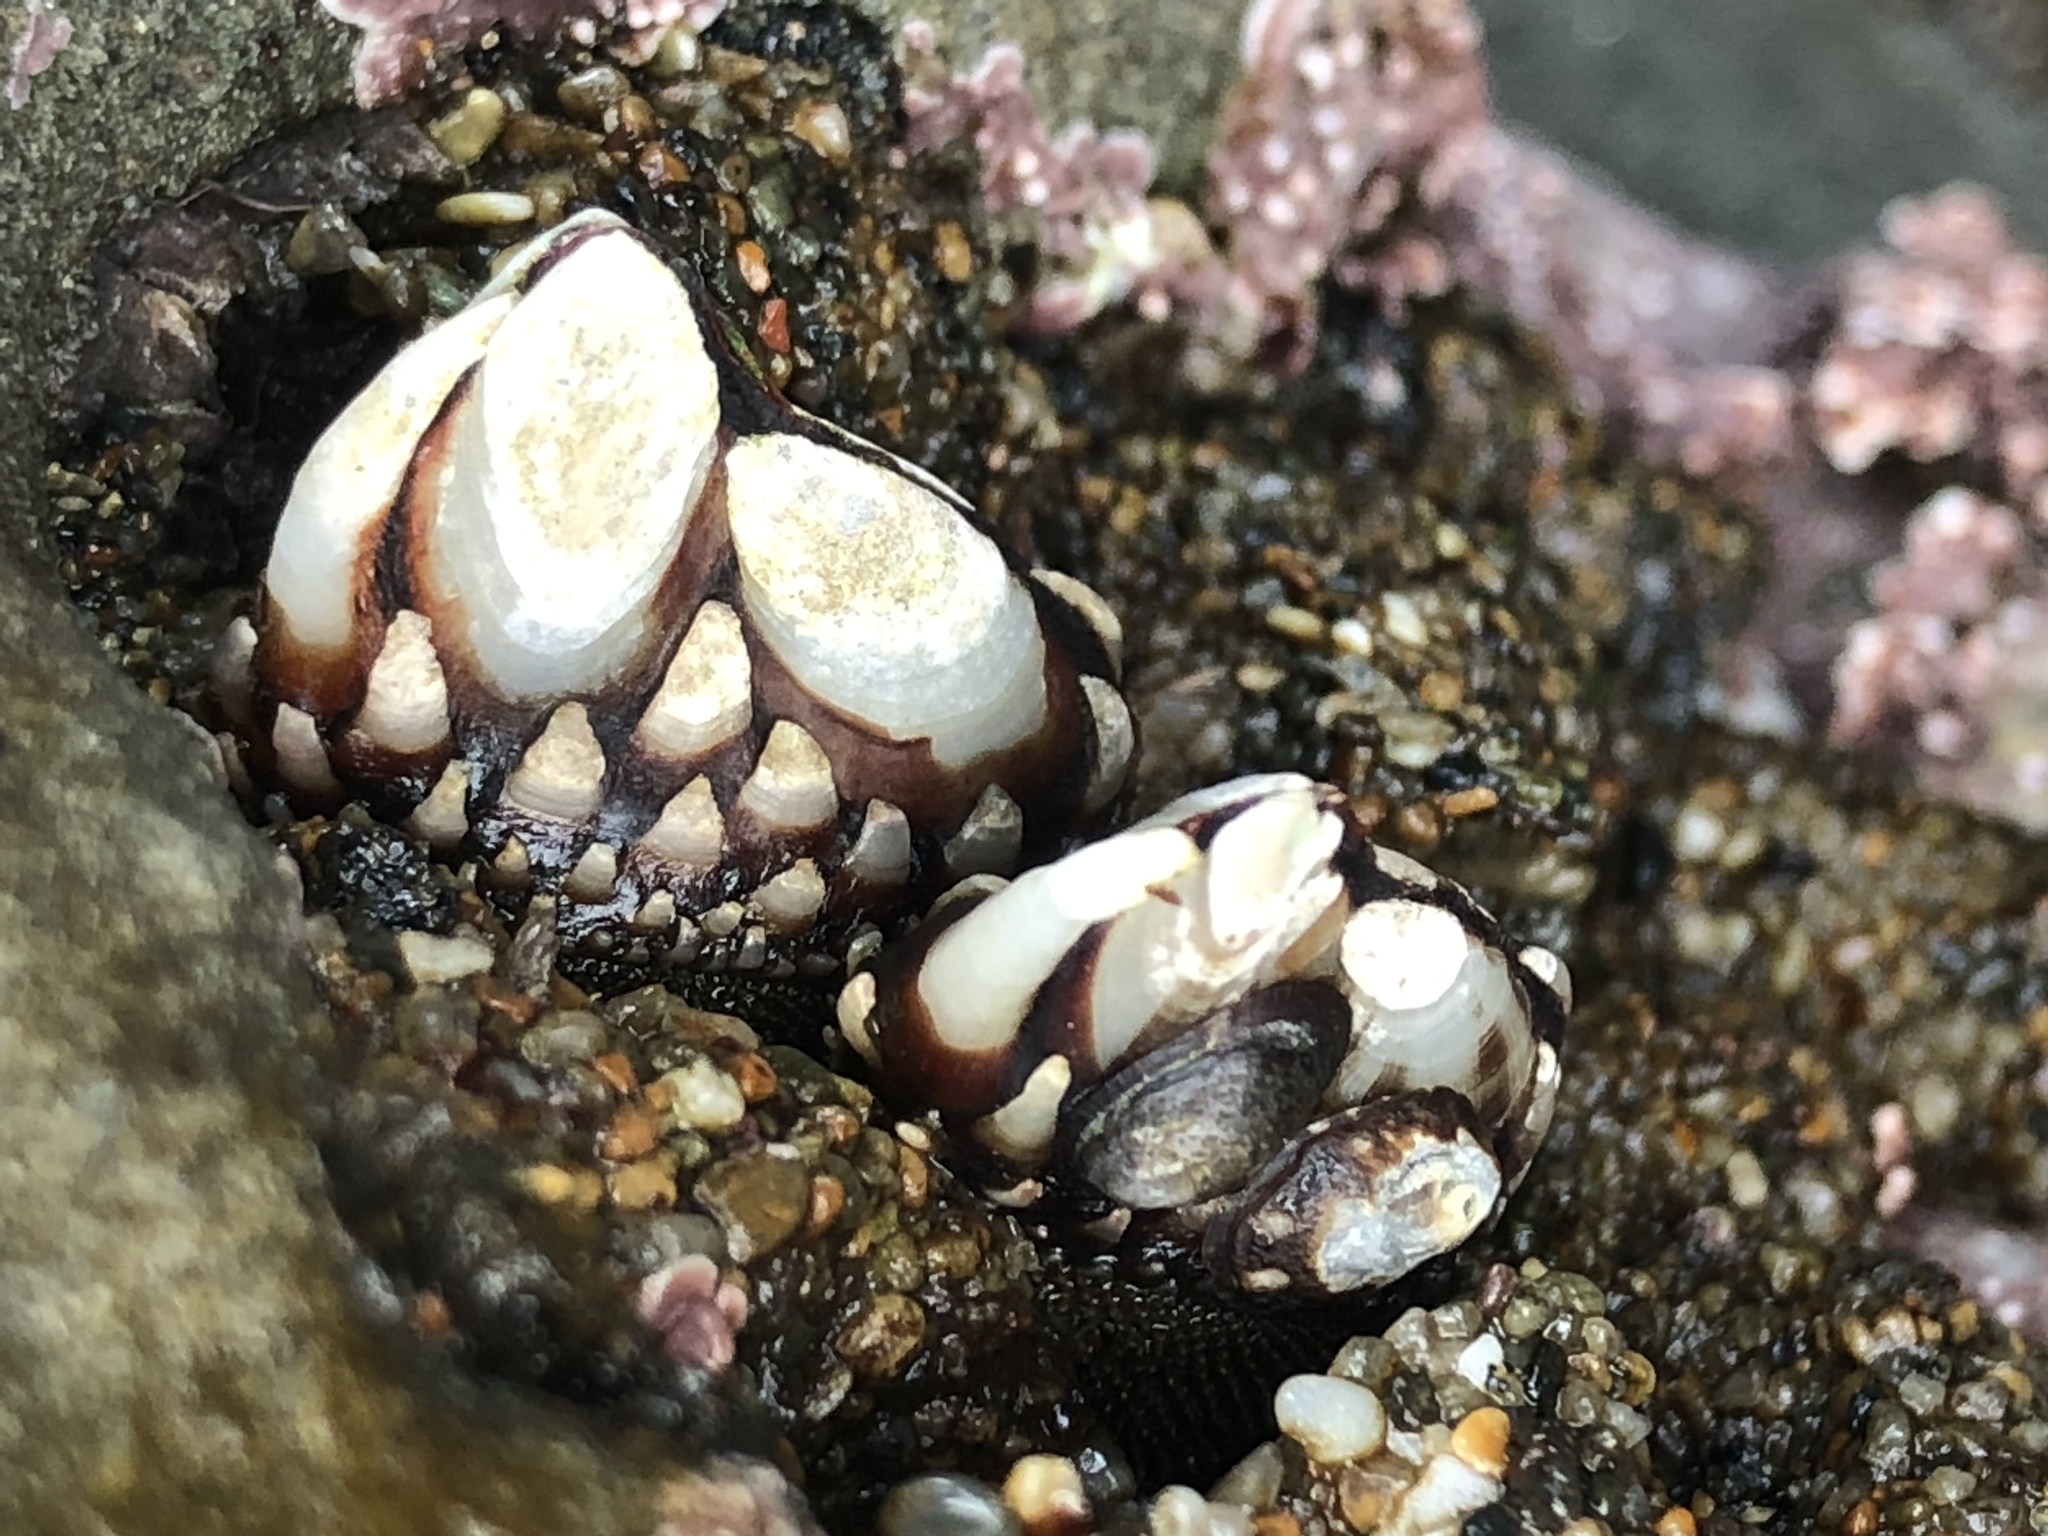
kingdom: Animalia
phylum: Arthropoda
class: Maxillopoda
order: Pedunculata
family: Pollicipedidae
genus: Pollicipes
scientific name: Pollicipes polymerus
